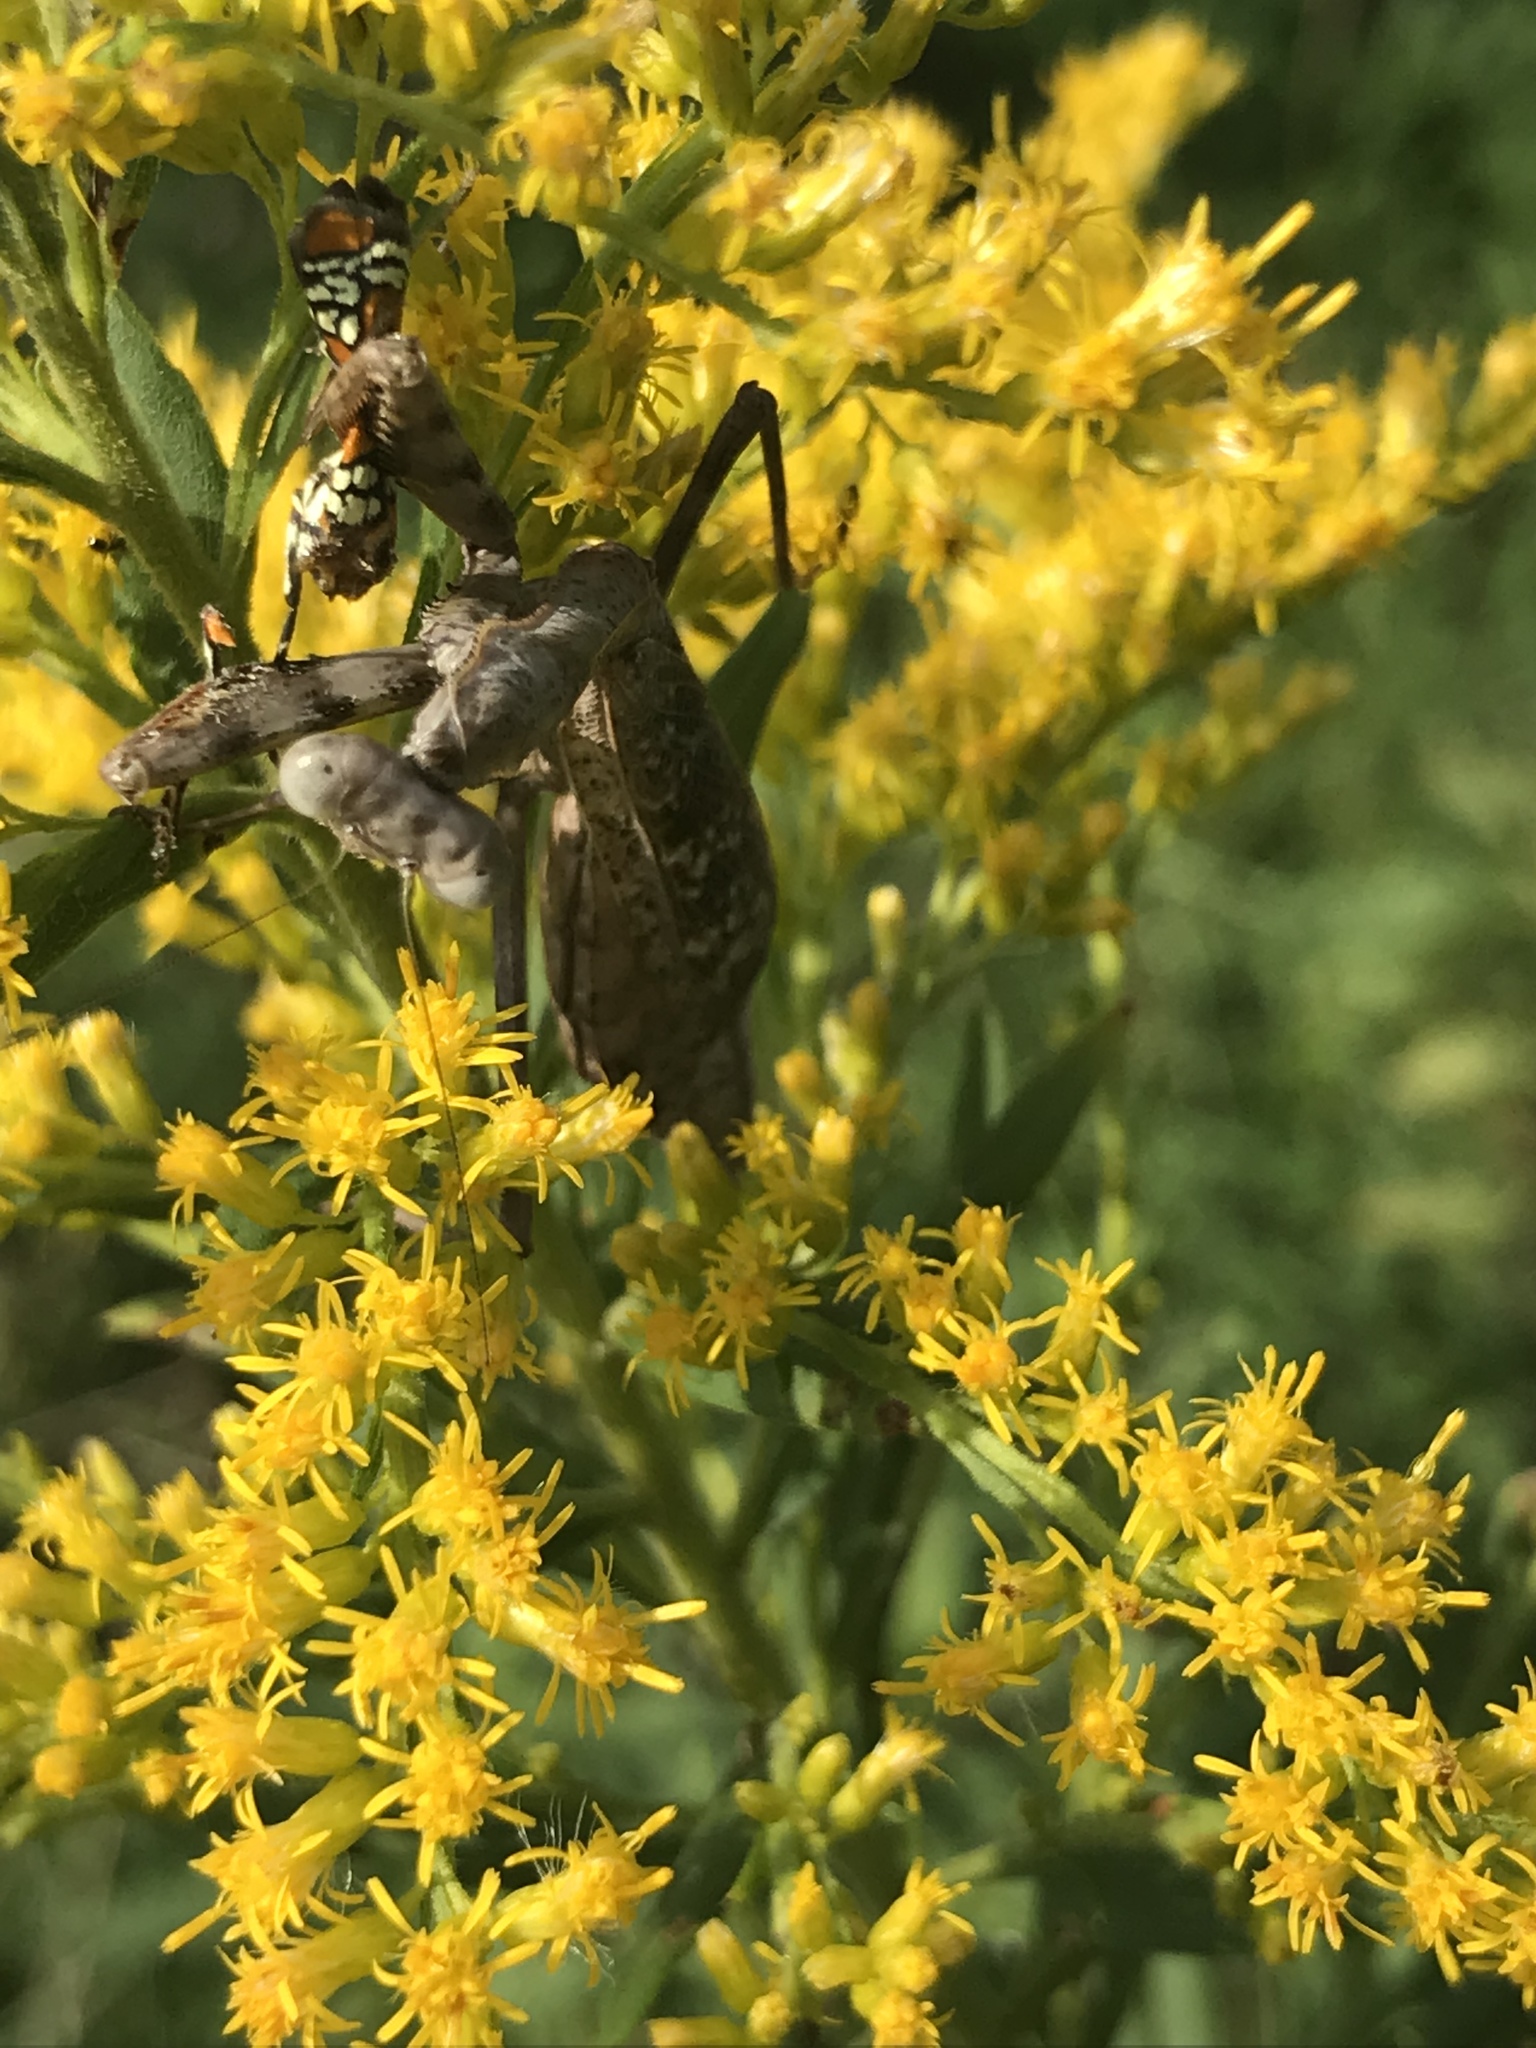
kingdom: Animalia
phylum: Arthropoda
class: Insecta
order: Mantodea
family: Mantidae
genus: Stagmomantis
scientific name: Stagmomantis carolina
